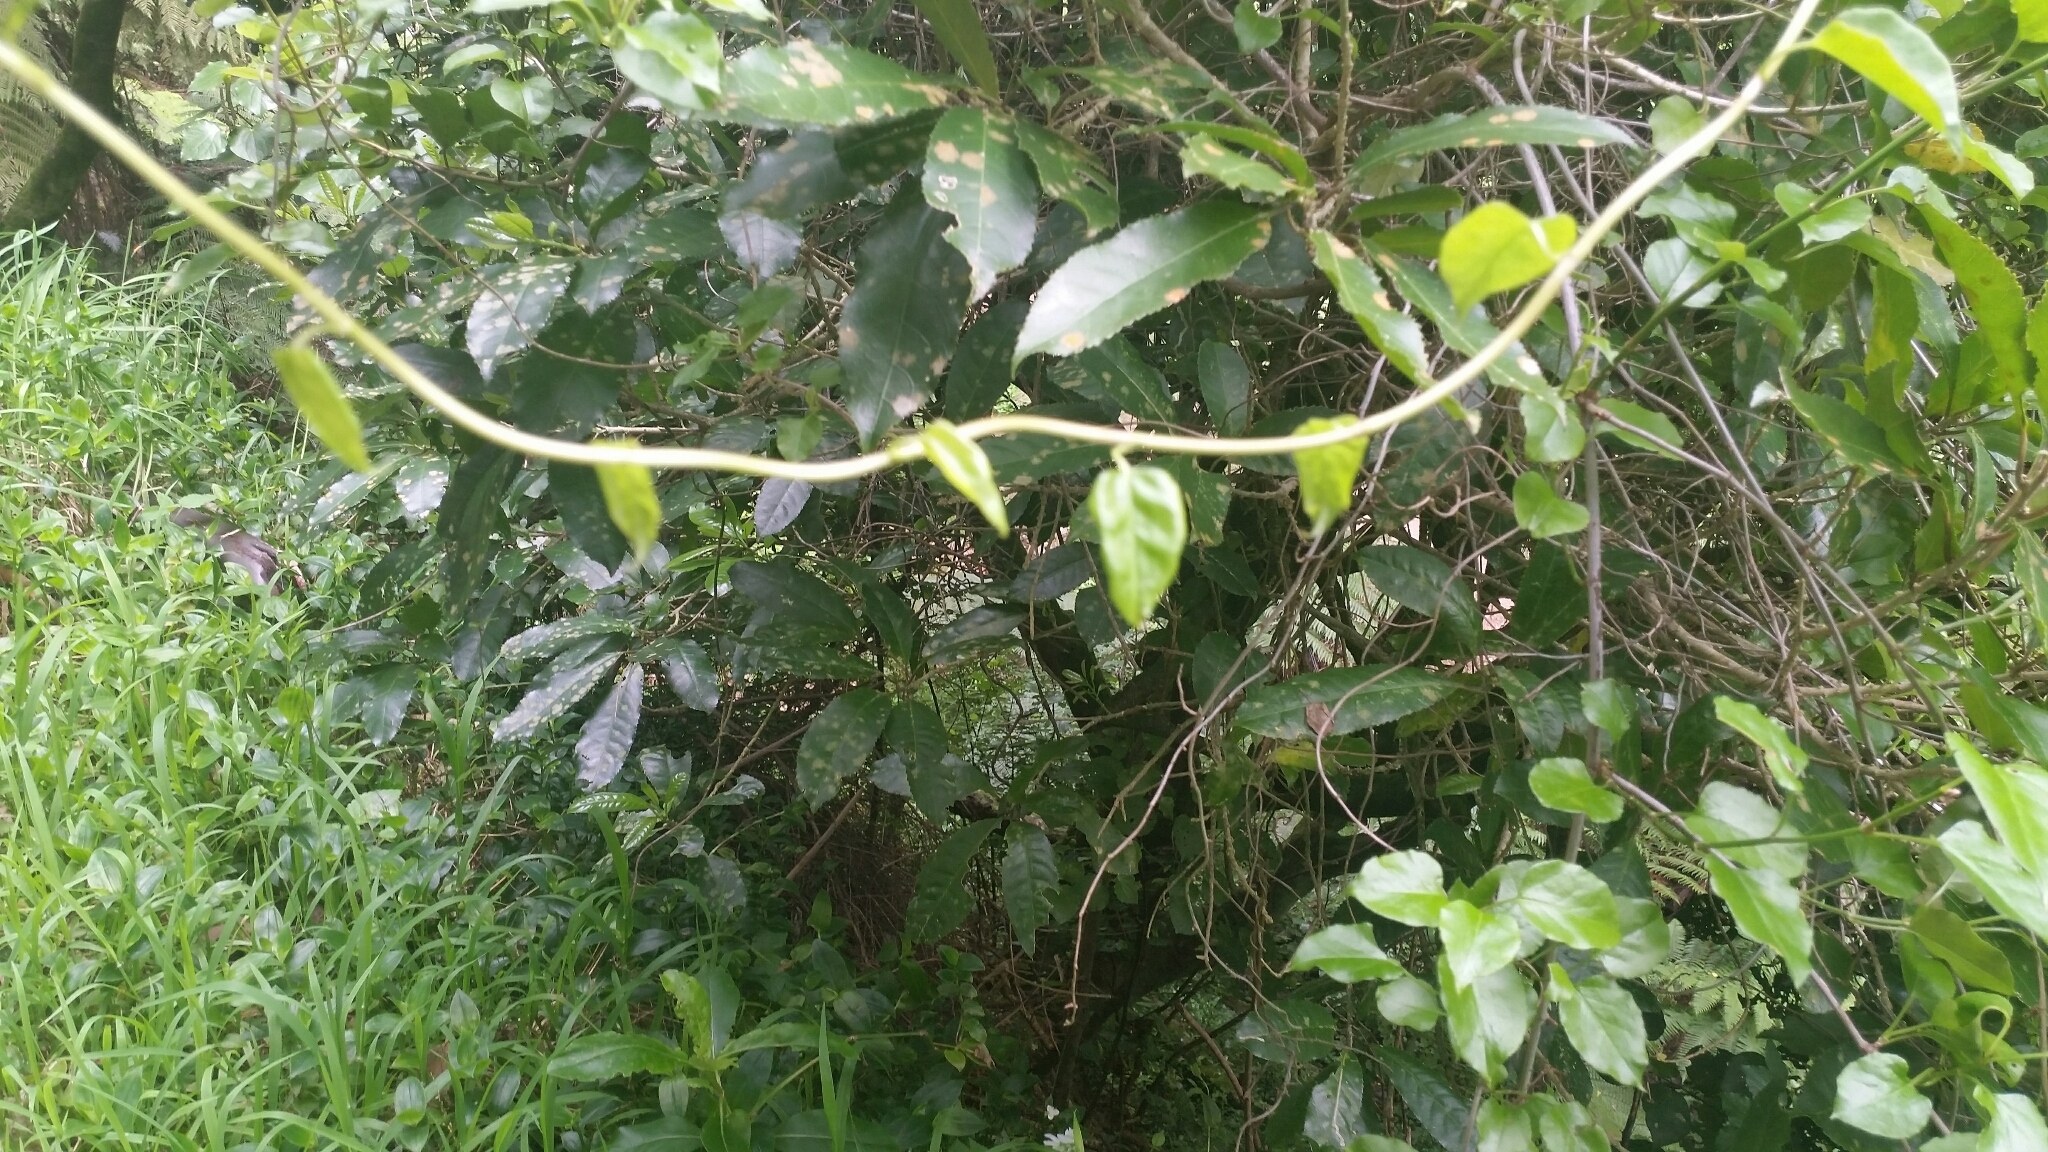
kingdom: Plantae
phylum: Tracheophyta
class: Magnoliopsida
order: Caryophyllales
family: Polygonaceae
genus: Muehlenbeckia
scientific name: Muehlenbeckia australis
